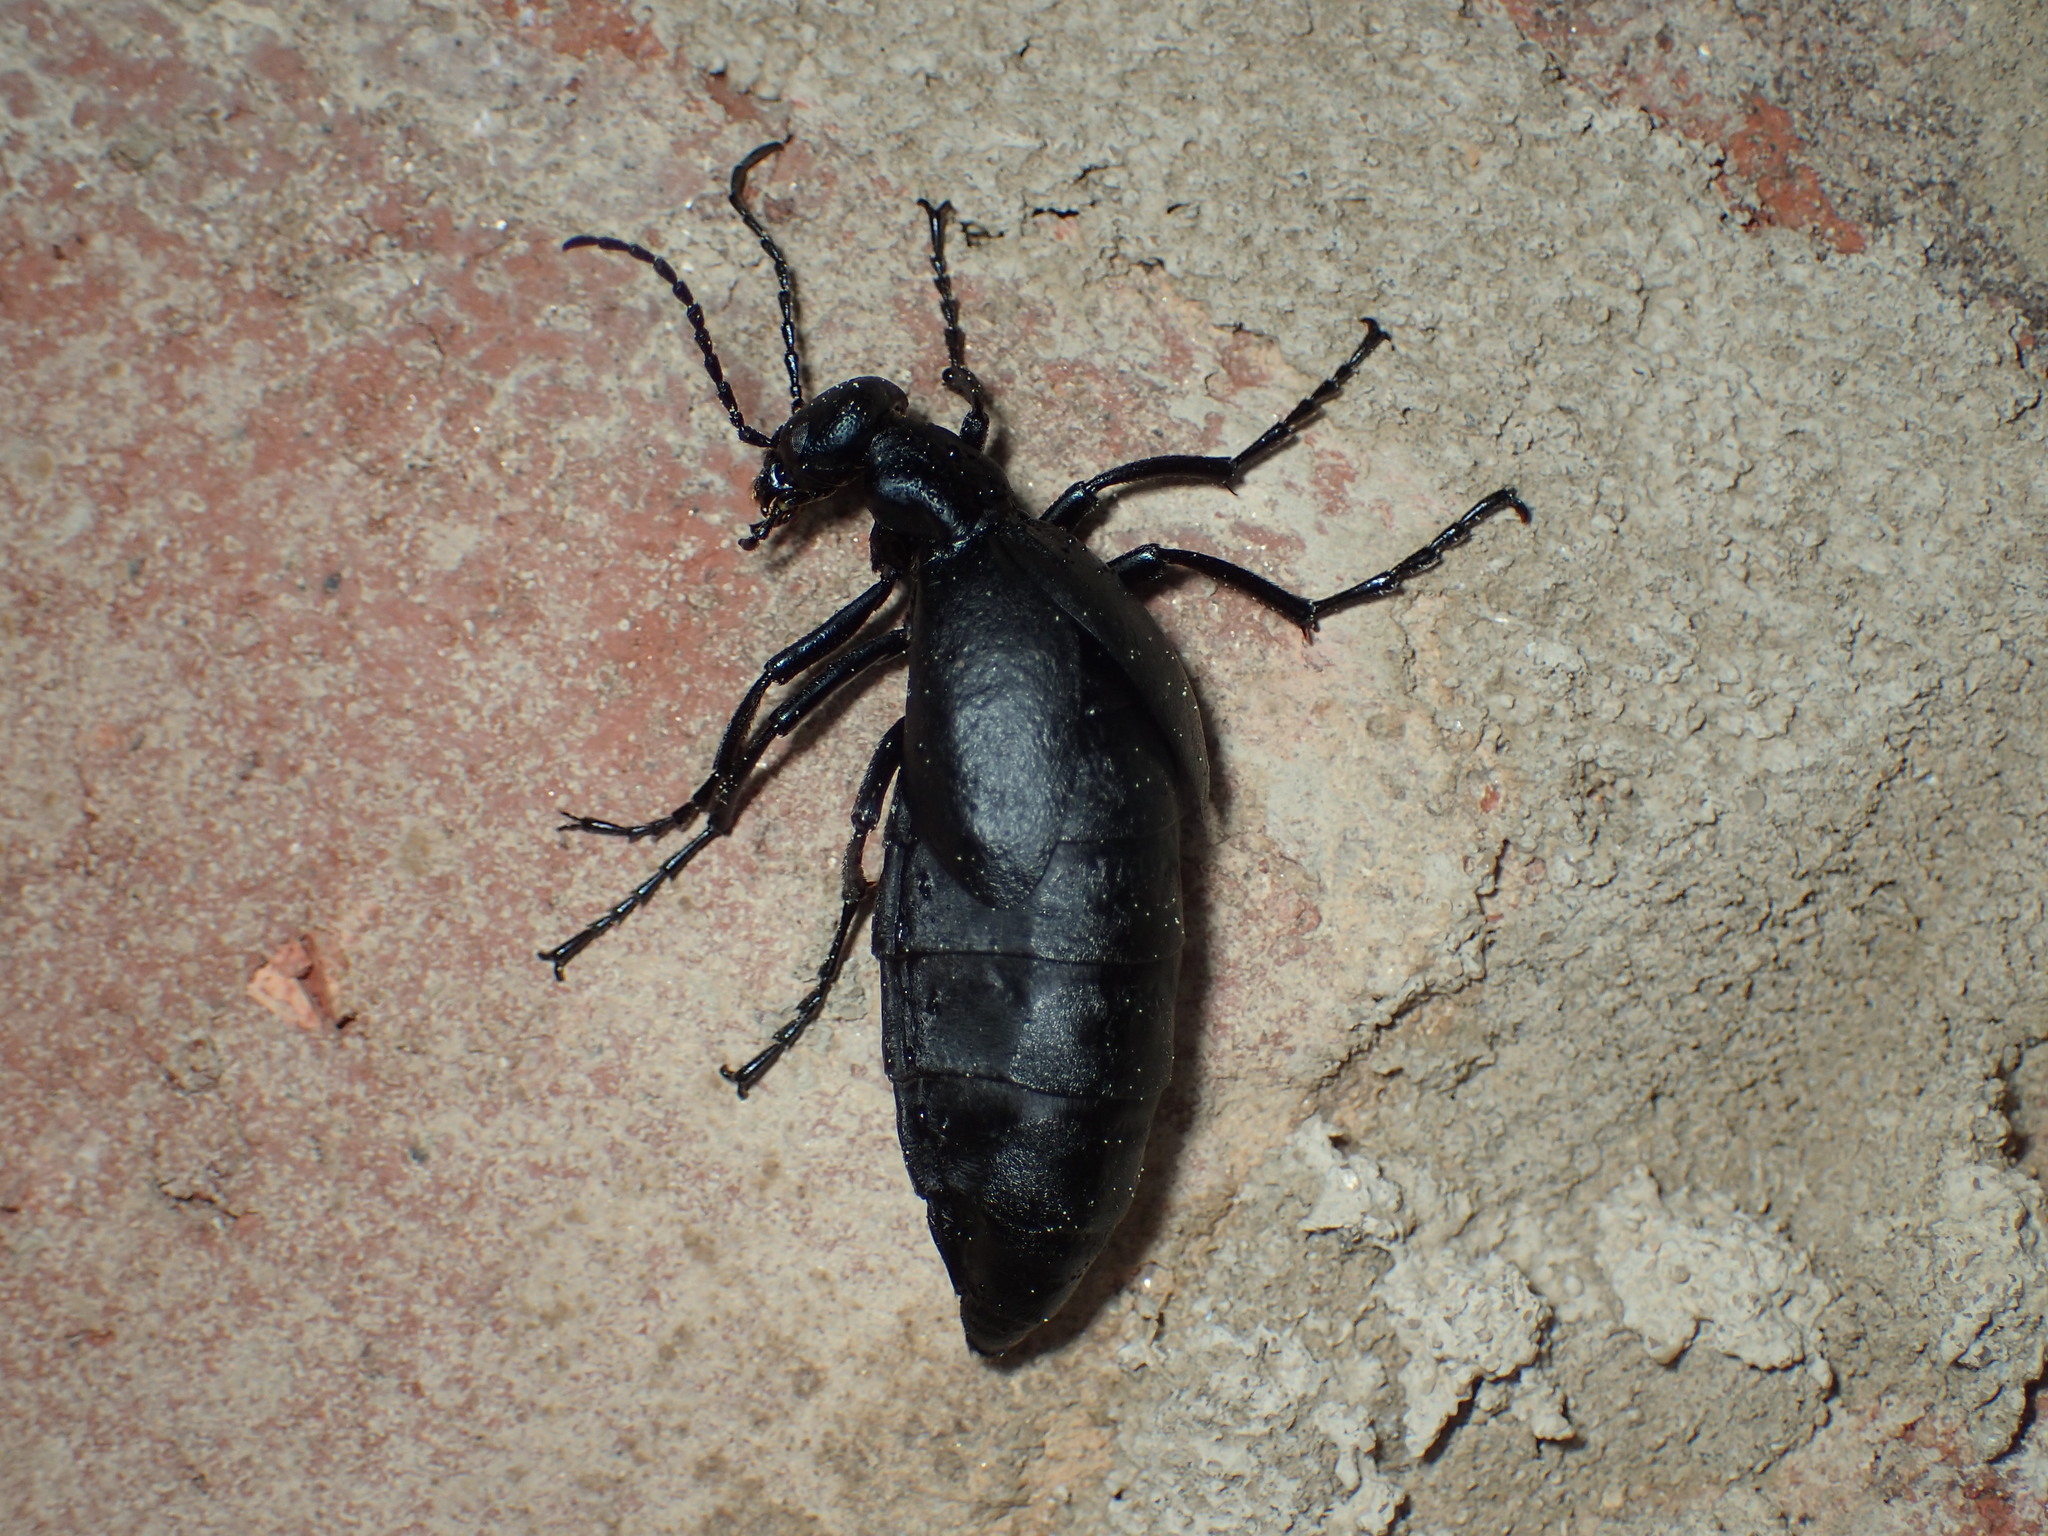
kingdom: Animalia
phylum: Arthropoda
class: Insecta
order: Coleoptera
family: Meloidae
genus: Meloe
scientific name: Meloe americanus
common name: Buttercup oil beetle
